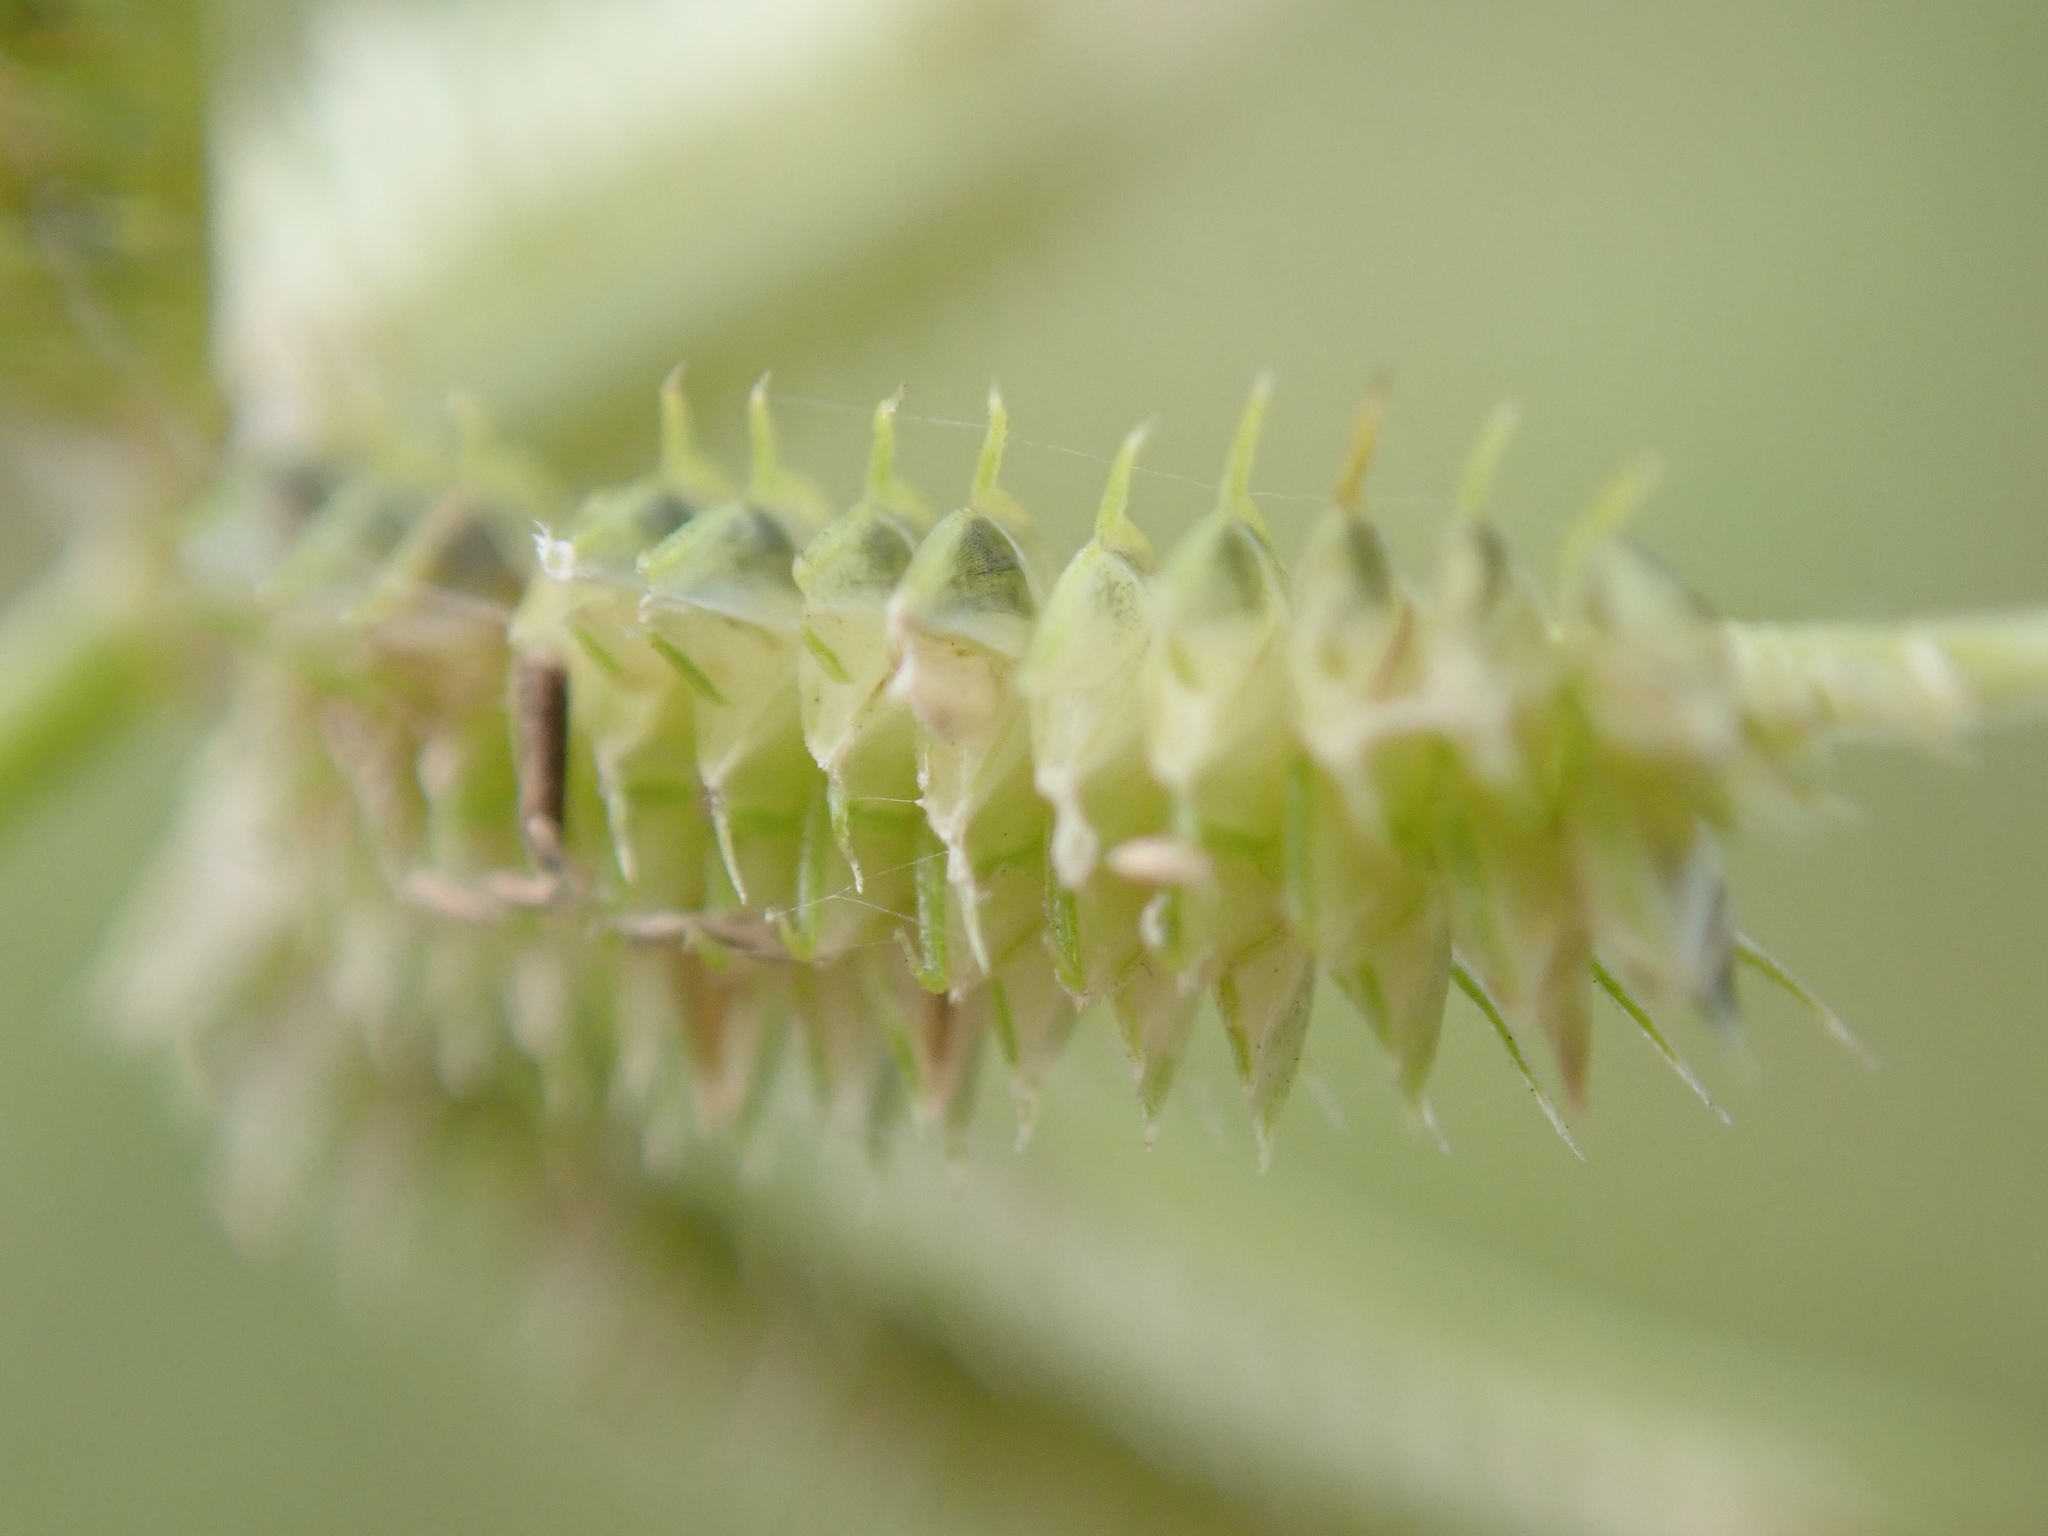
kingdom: Plantae
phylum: Tracheophyta
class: Liliopsida
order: Poales
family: Poaceae
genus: Dactyloctenium
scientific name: Dactyloctenium aegyptium
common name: Egyptian grass
